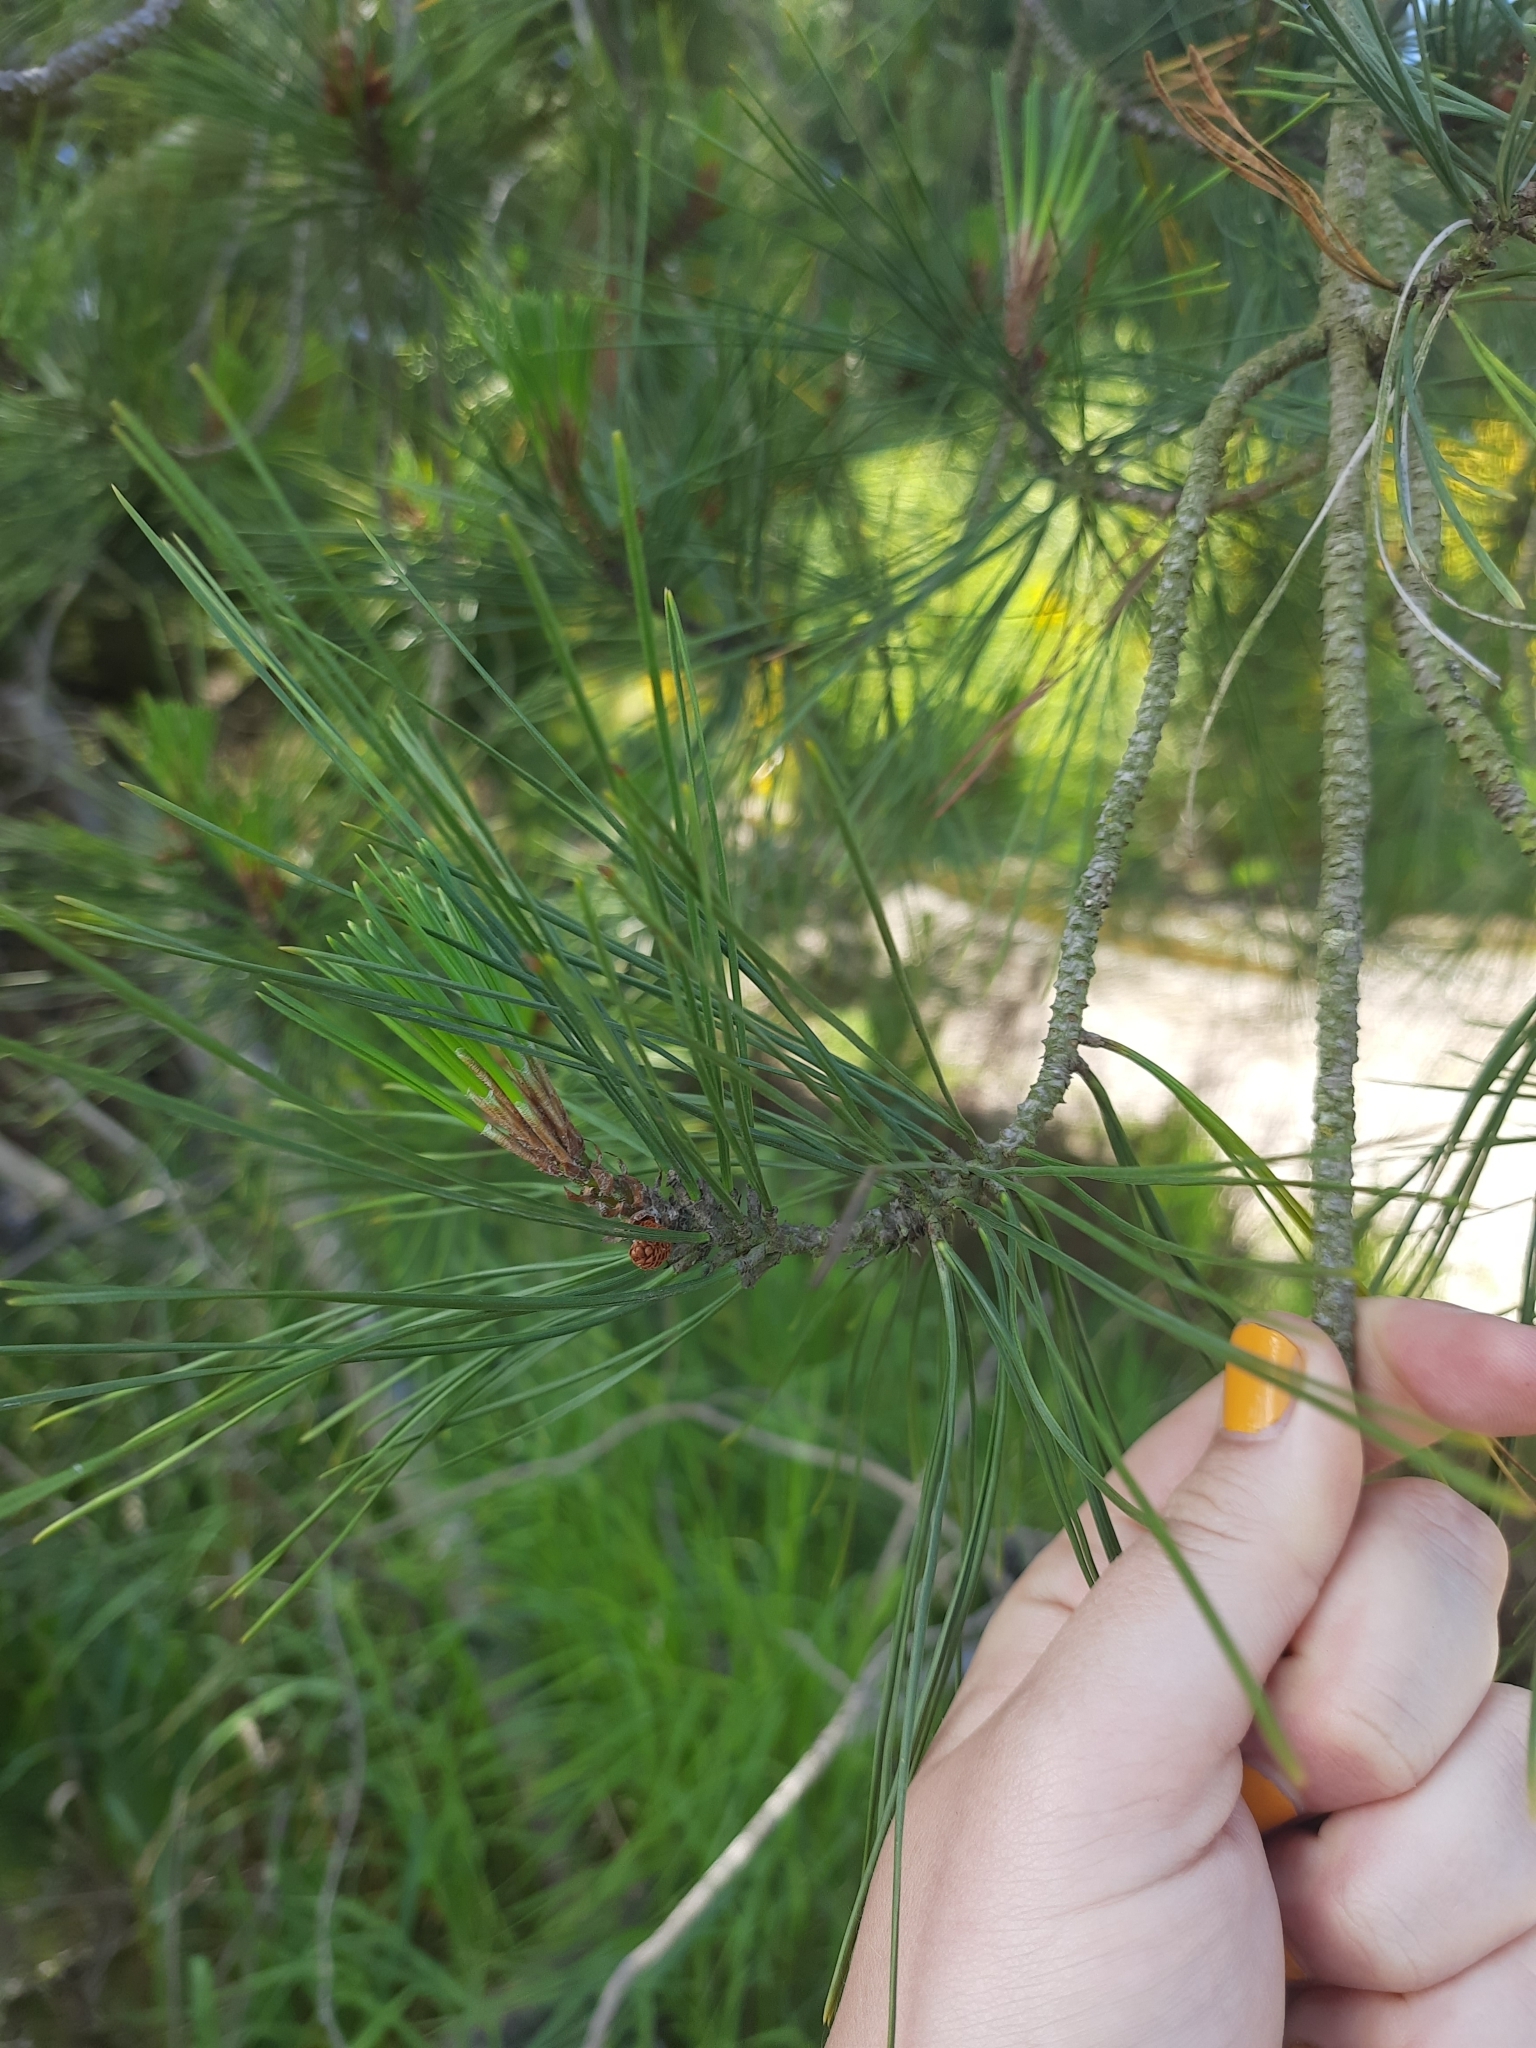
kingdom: Plantae
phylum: Tracheophyta
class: Pinopsida
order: Pinales
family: Pinaceae
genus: Pinus
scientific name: Pinus radiata
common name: Monterey pine
